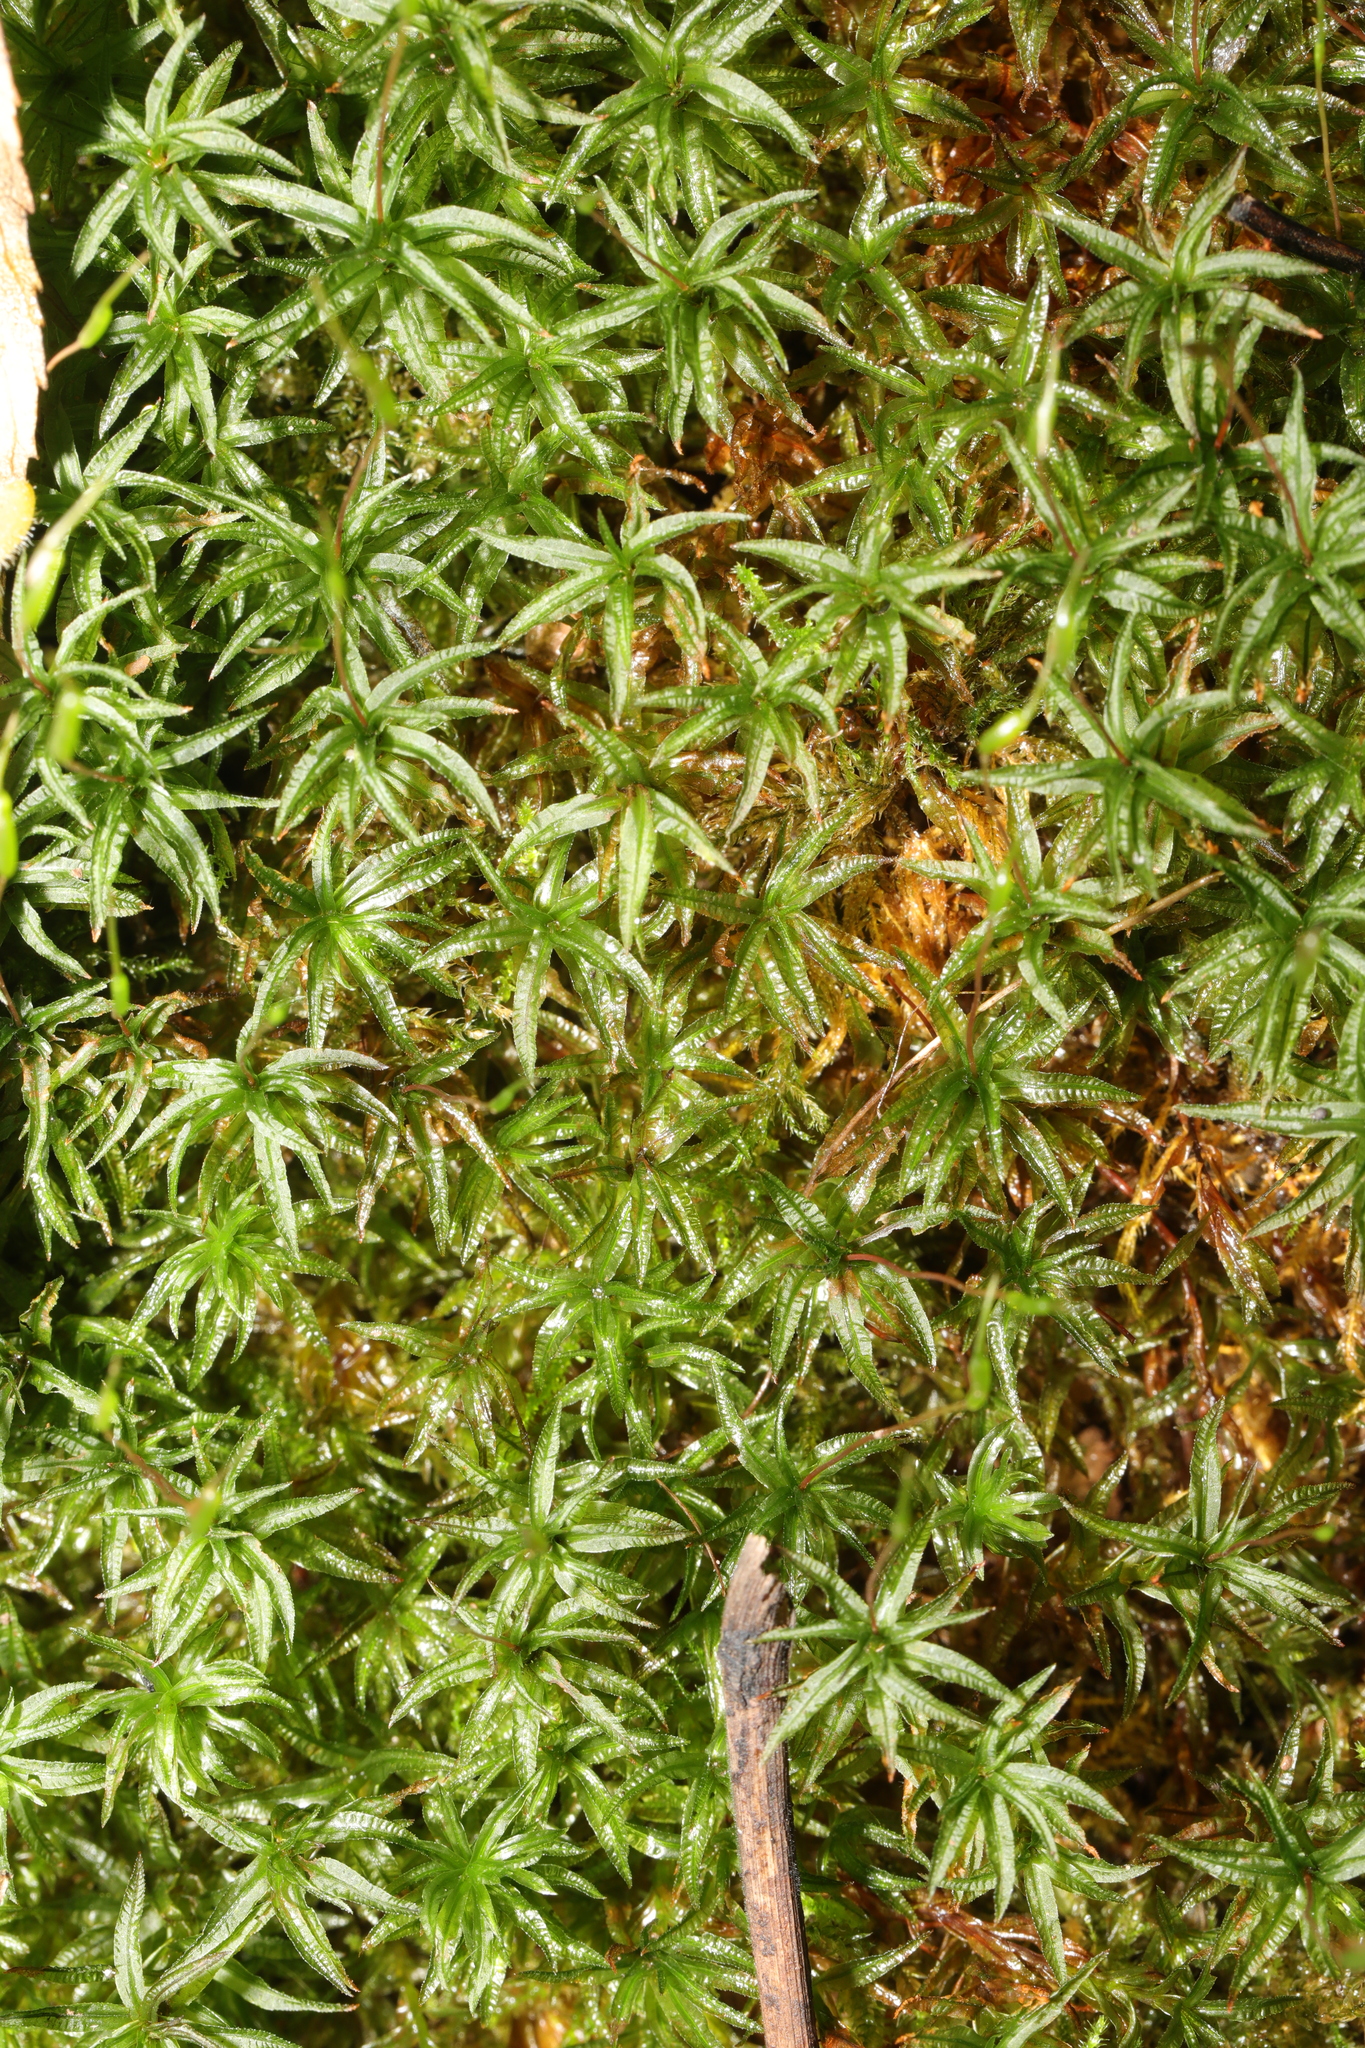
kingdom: Plantae
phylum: Bryophyta
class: Polytrichopsida
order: Polytrichales
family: Polytrichaceae
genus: Atrichum
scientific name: Atrichum undulatum
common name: Common smoothcap
